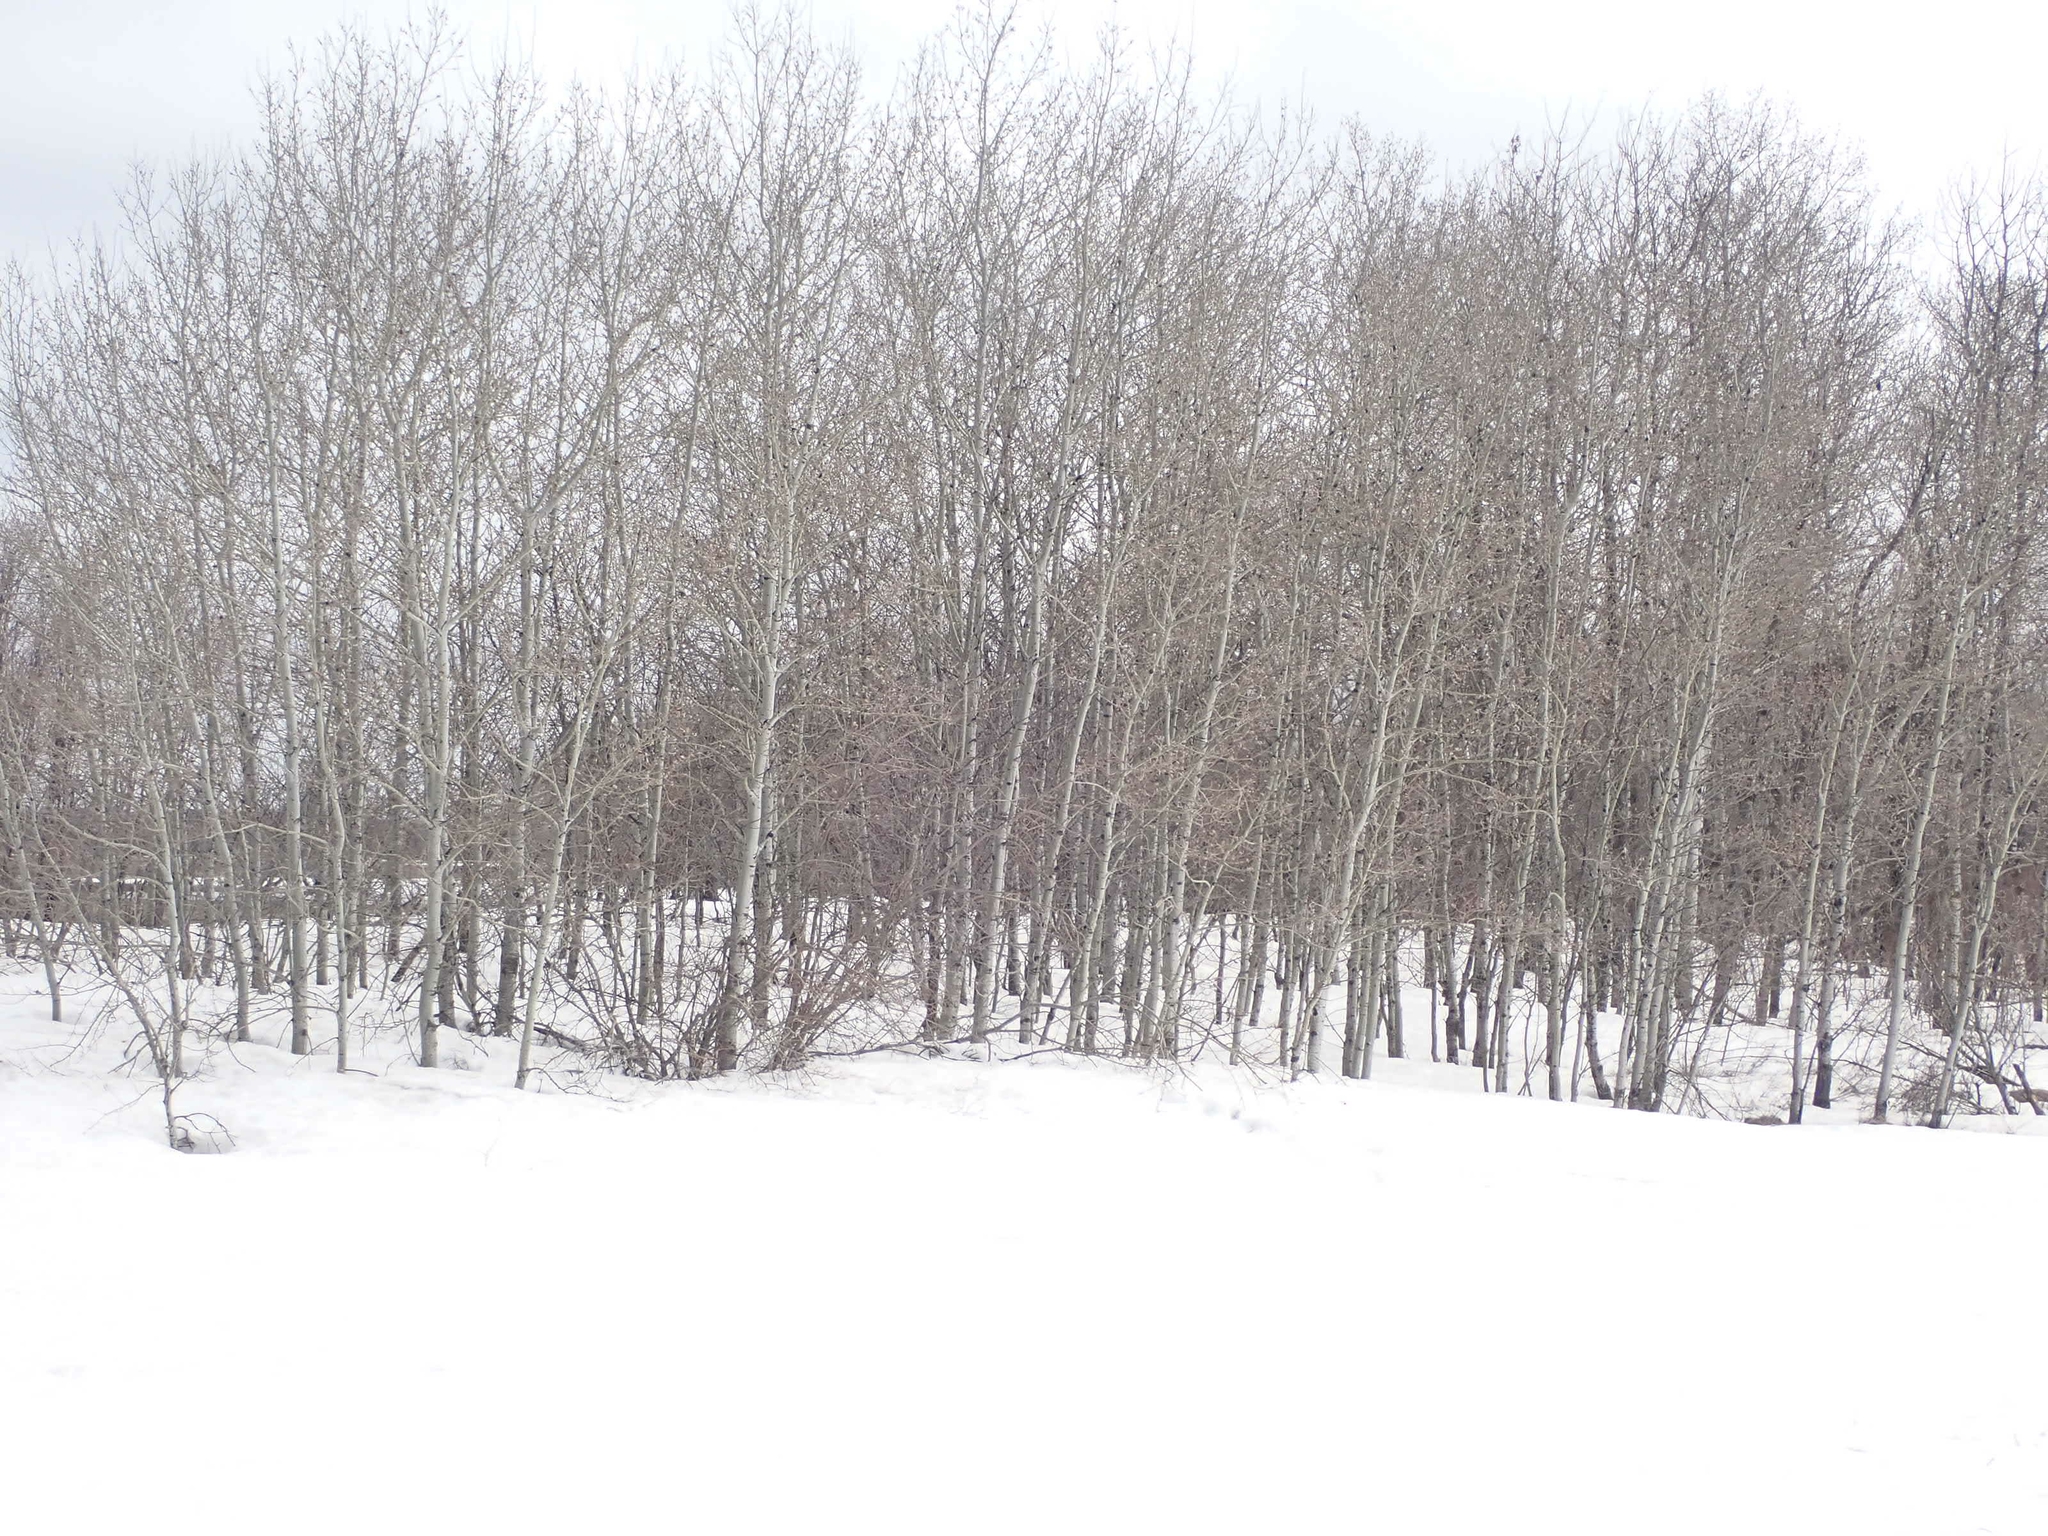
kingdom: Plantae
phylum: Tracheophyta
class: Magnoliopsida
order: Malpighiales
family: Salicaceae
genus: Populus
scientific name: Populus tremuloides
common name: Quaking aspen
